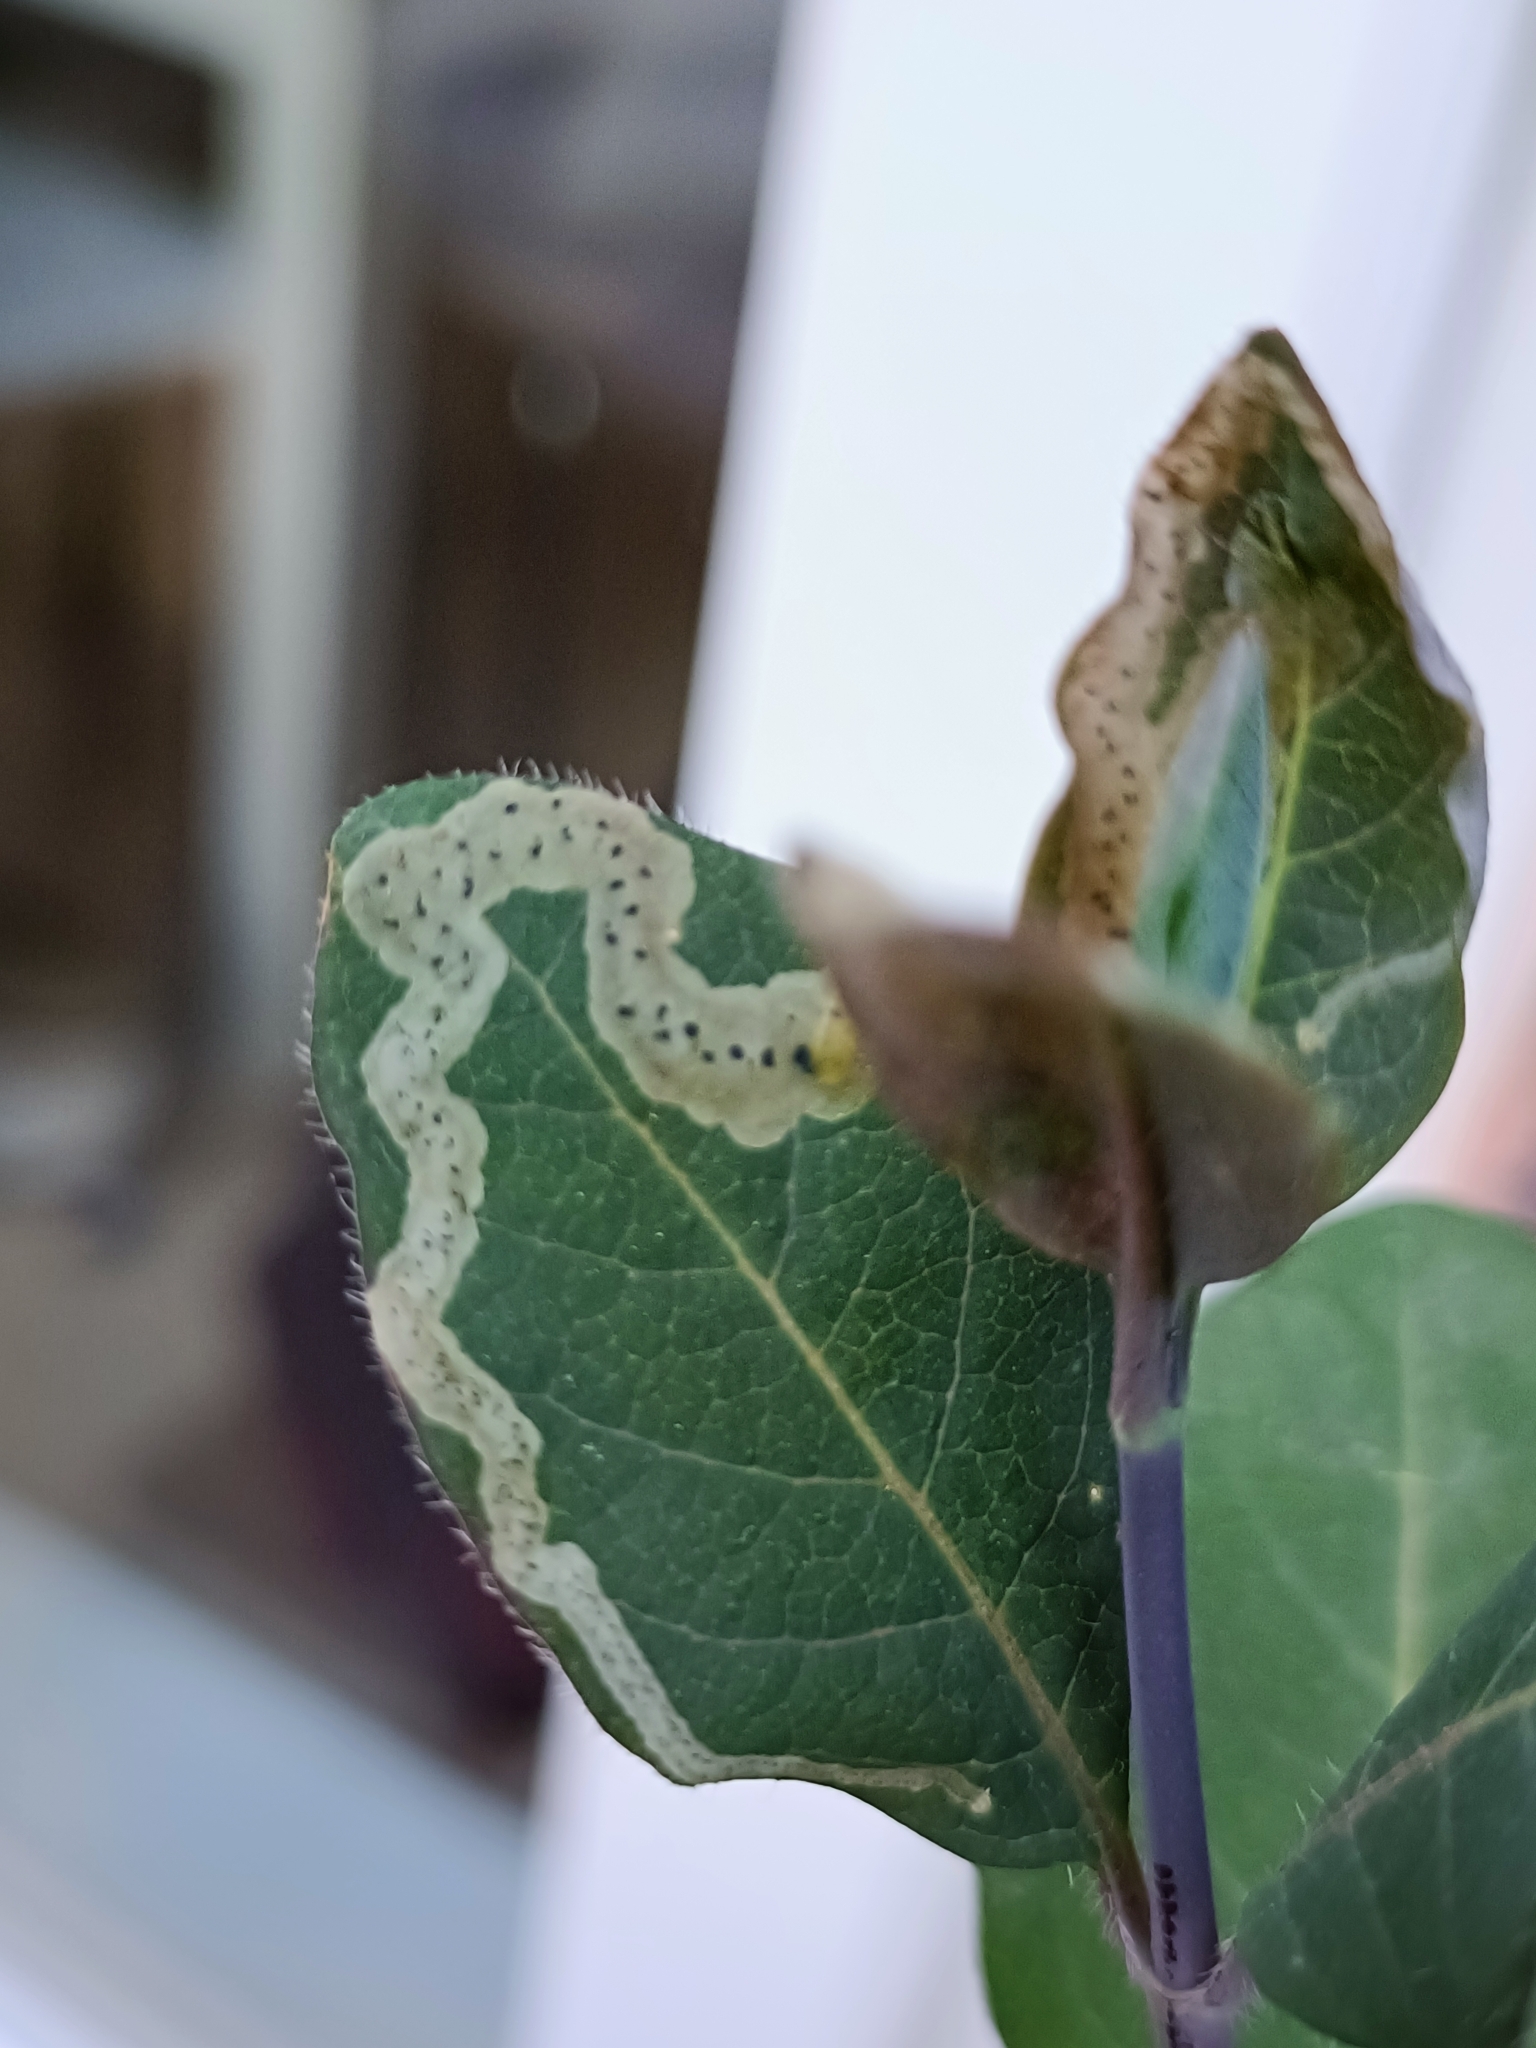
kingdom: Plantae
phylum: Tracheophyta
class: Magnoliopsida
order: Dipsacales
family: Caprifoliaceae
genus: Lonicera
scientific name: Lonicera periclymenum
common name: European honeysuckle
